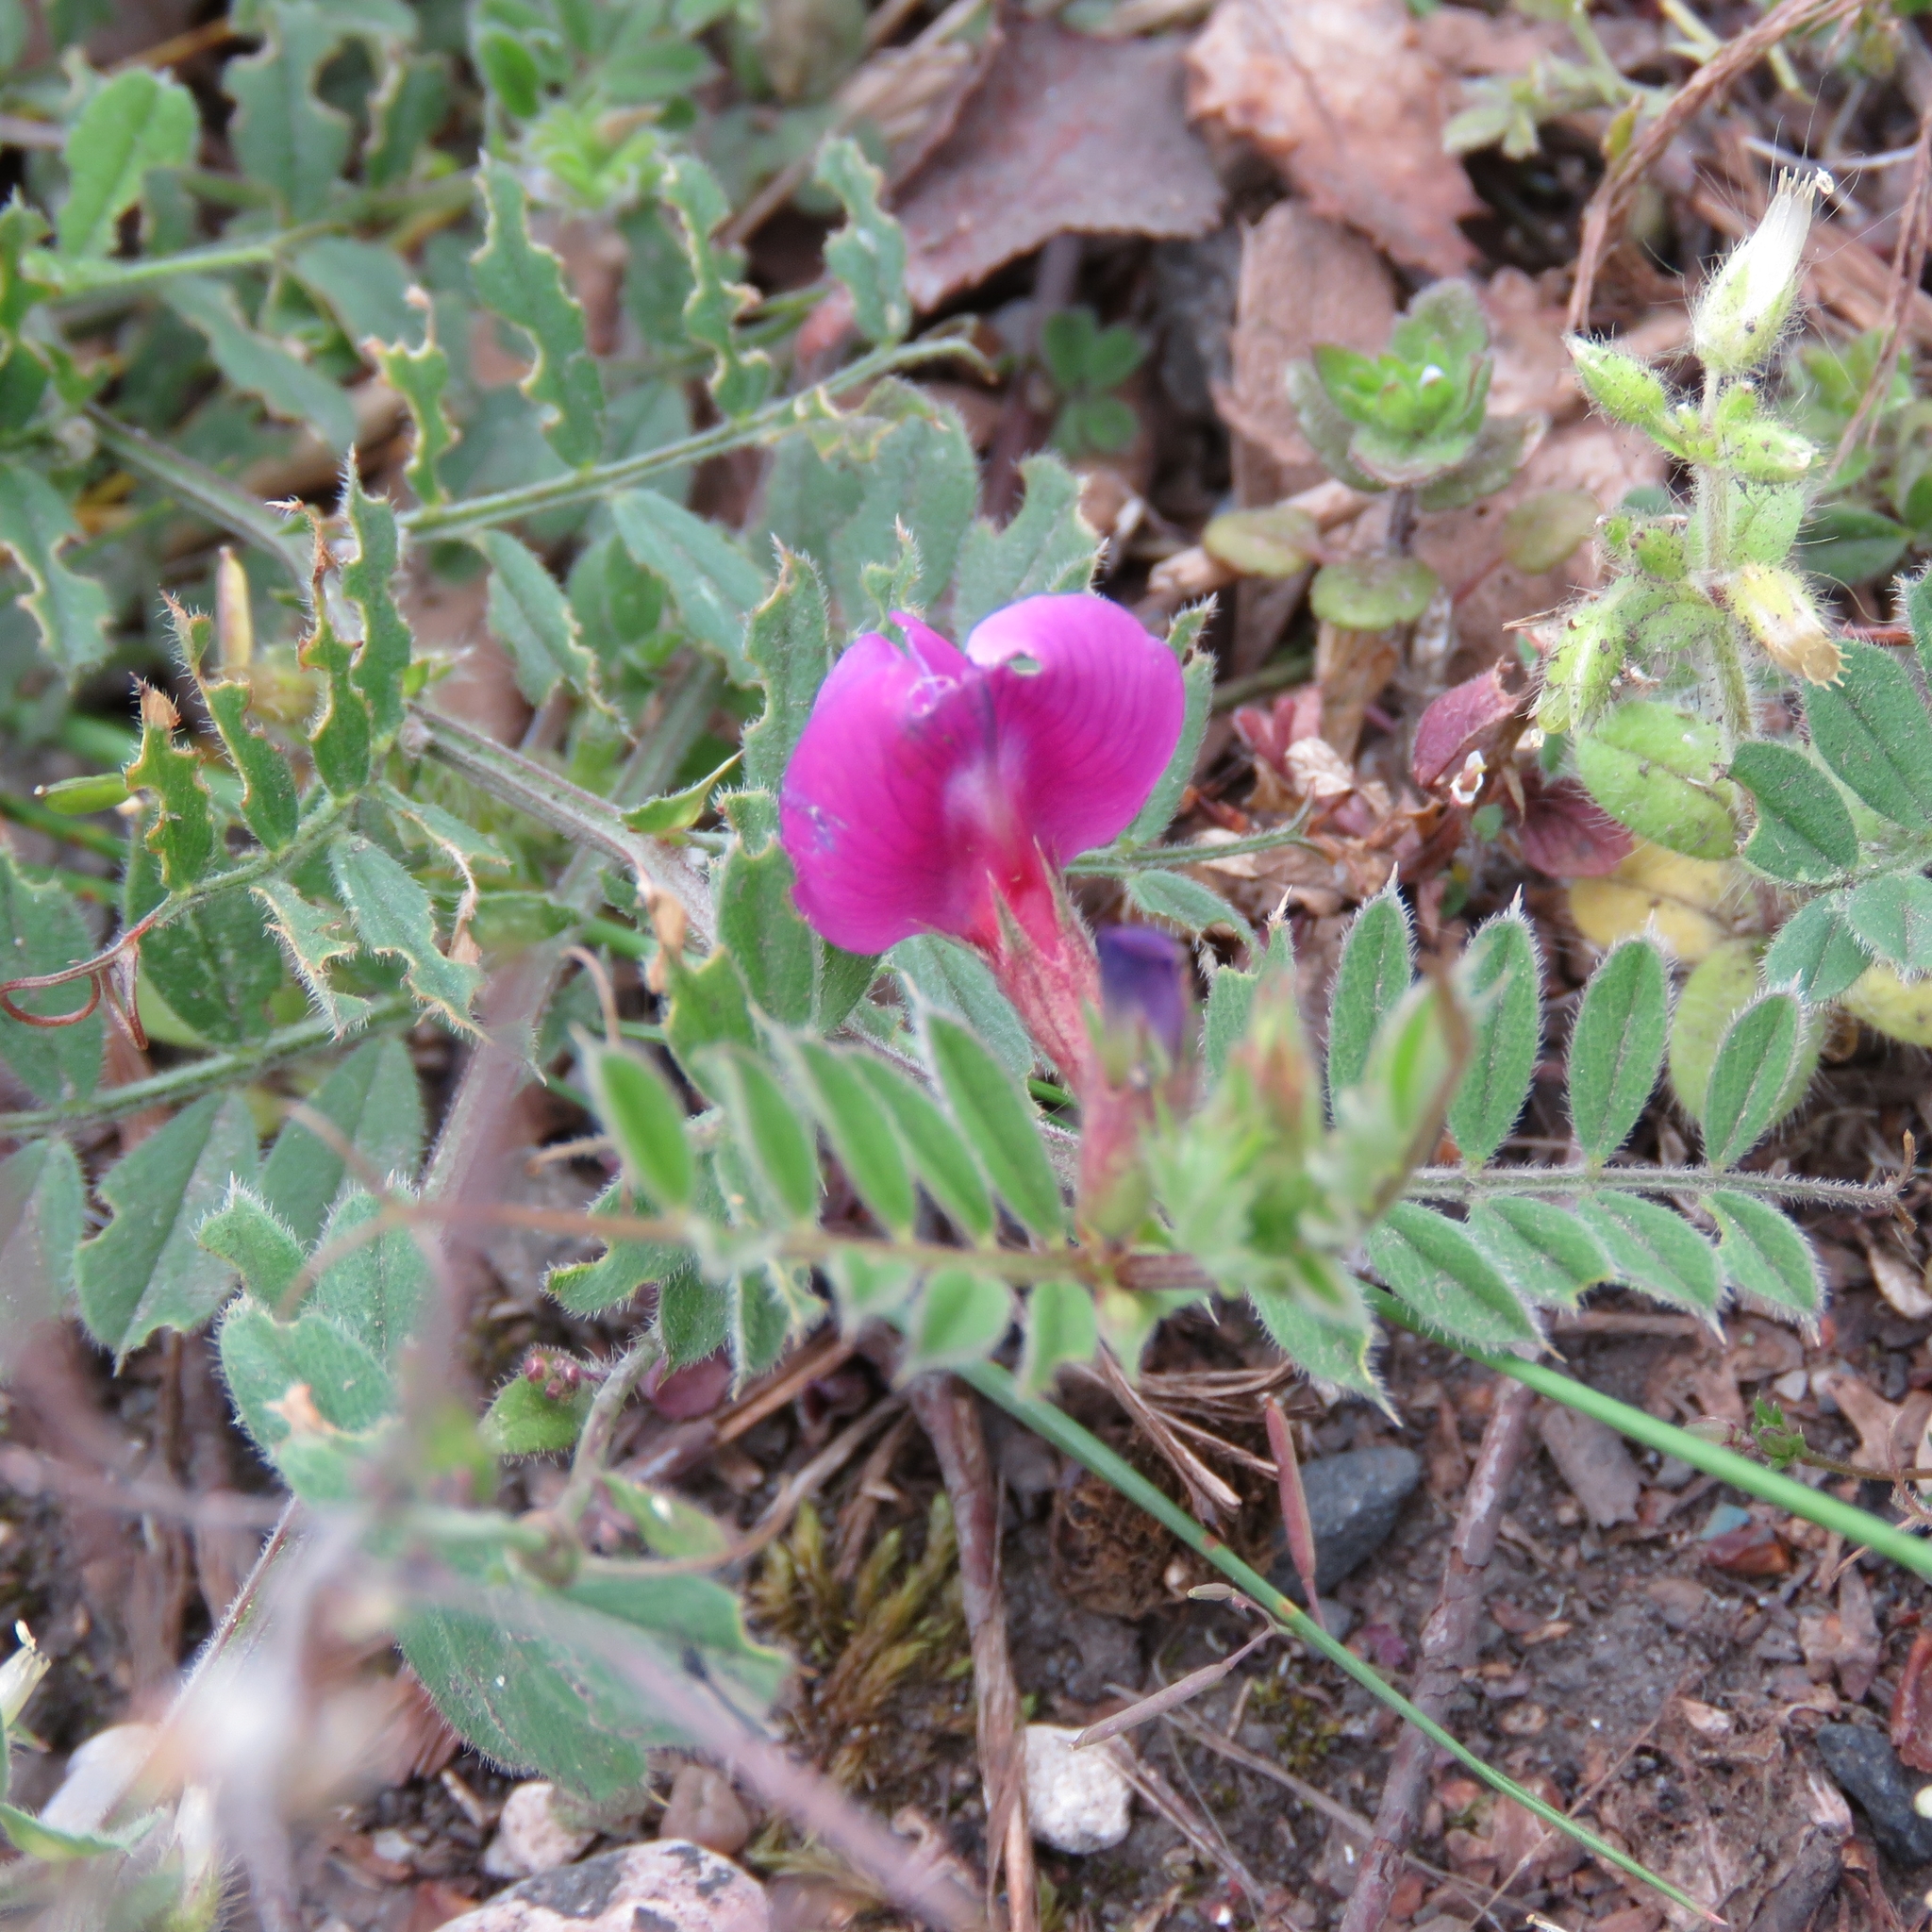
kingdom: Plantae
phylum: Tracheophyta
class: Magnoliopsida
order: Fabales
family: Fabaceae
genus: Vicia
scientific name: Vicia sativa
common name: Garden vetch
